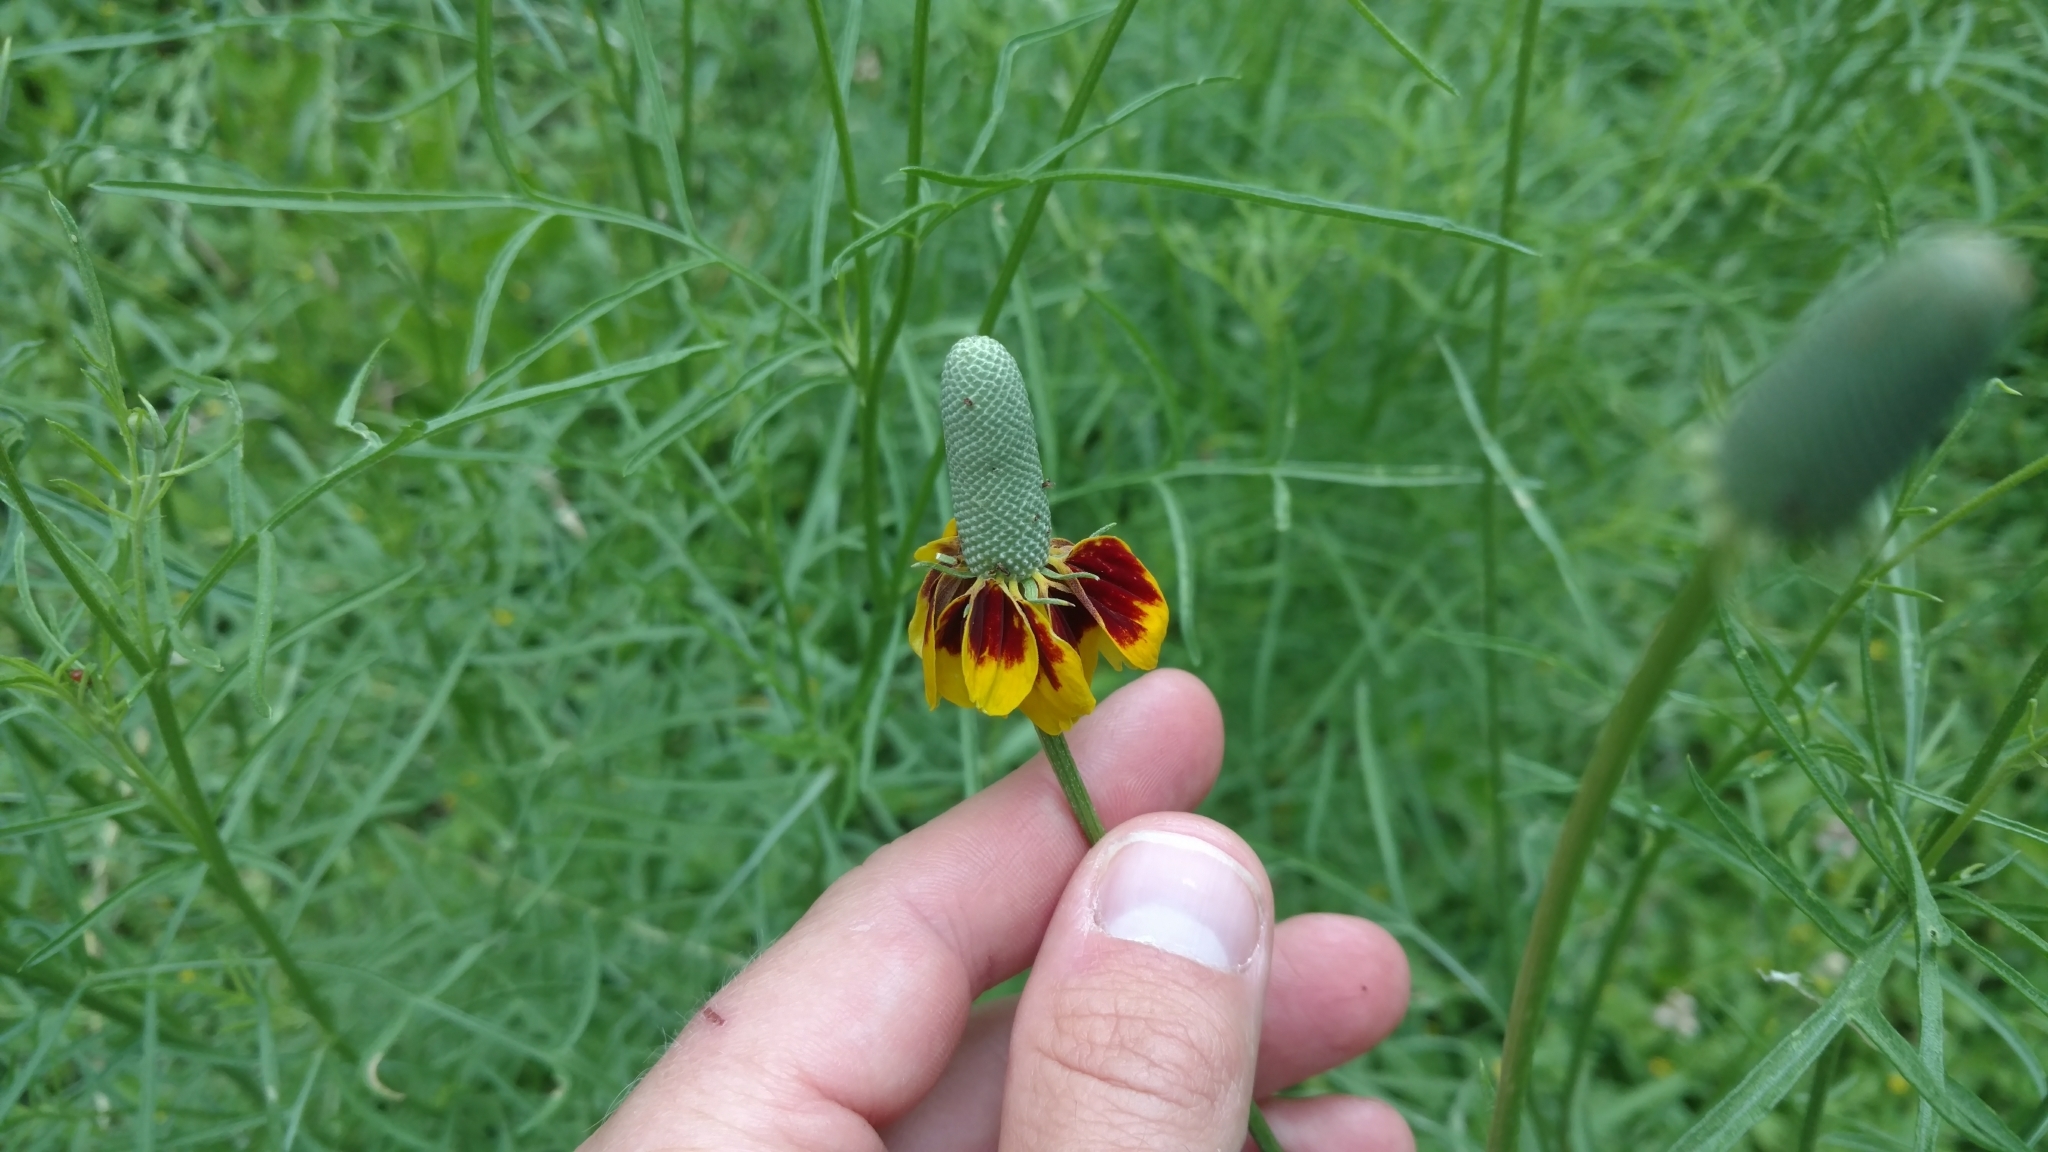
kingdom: Plantae
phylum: Tracheophyta
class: Magnoliopsida
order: Asterales
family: Asteraceae
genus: Ratibida
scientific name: Ratibida columnifera
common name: Prairie coneflower
